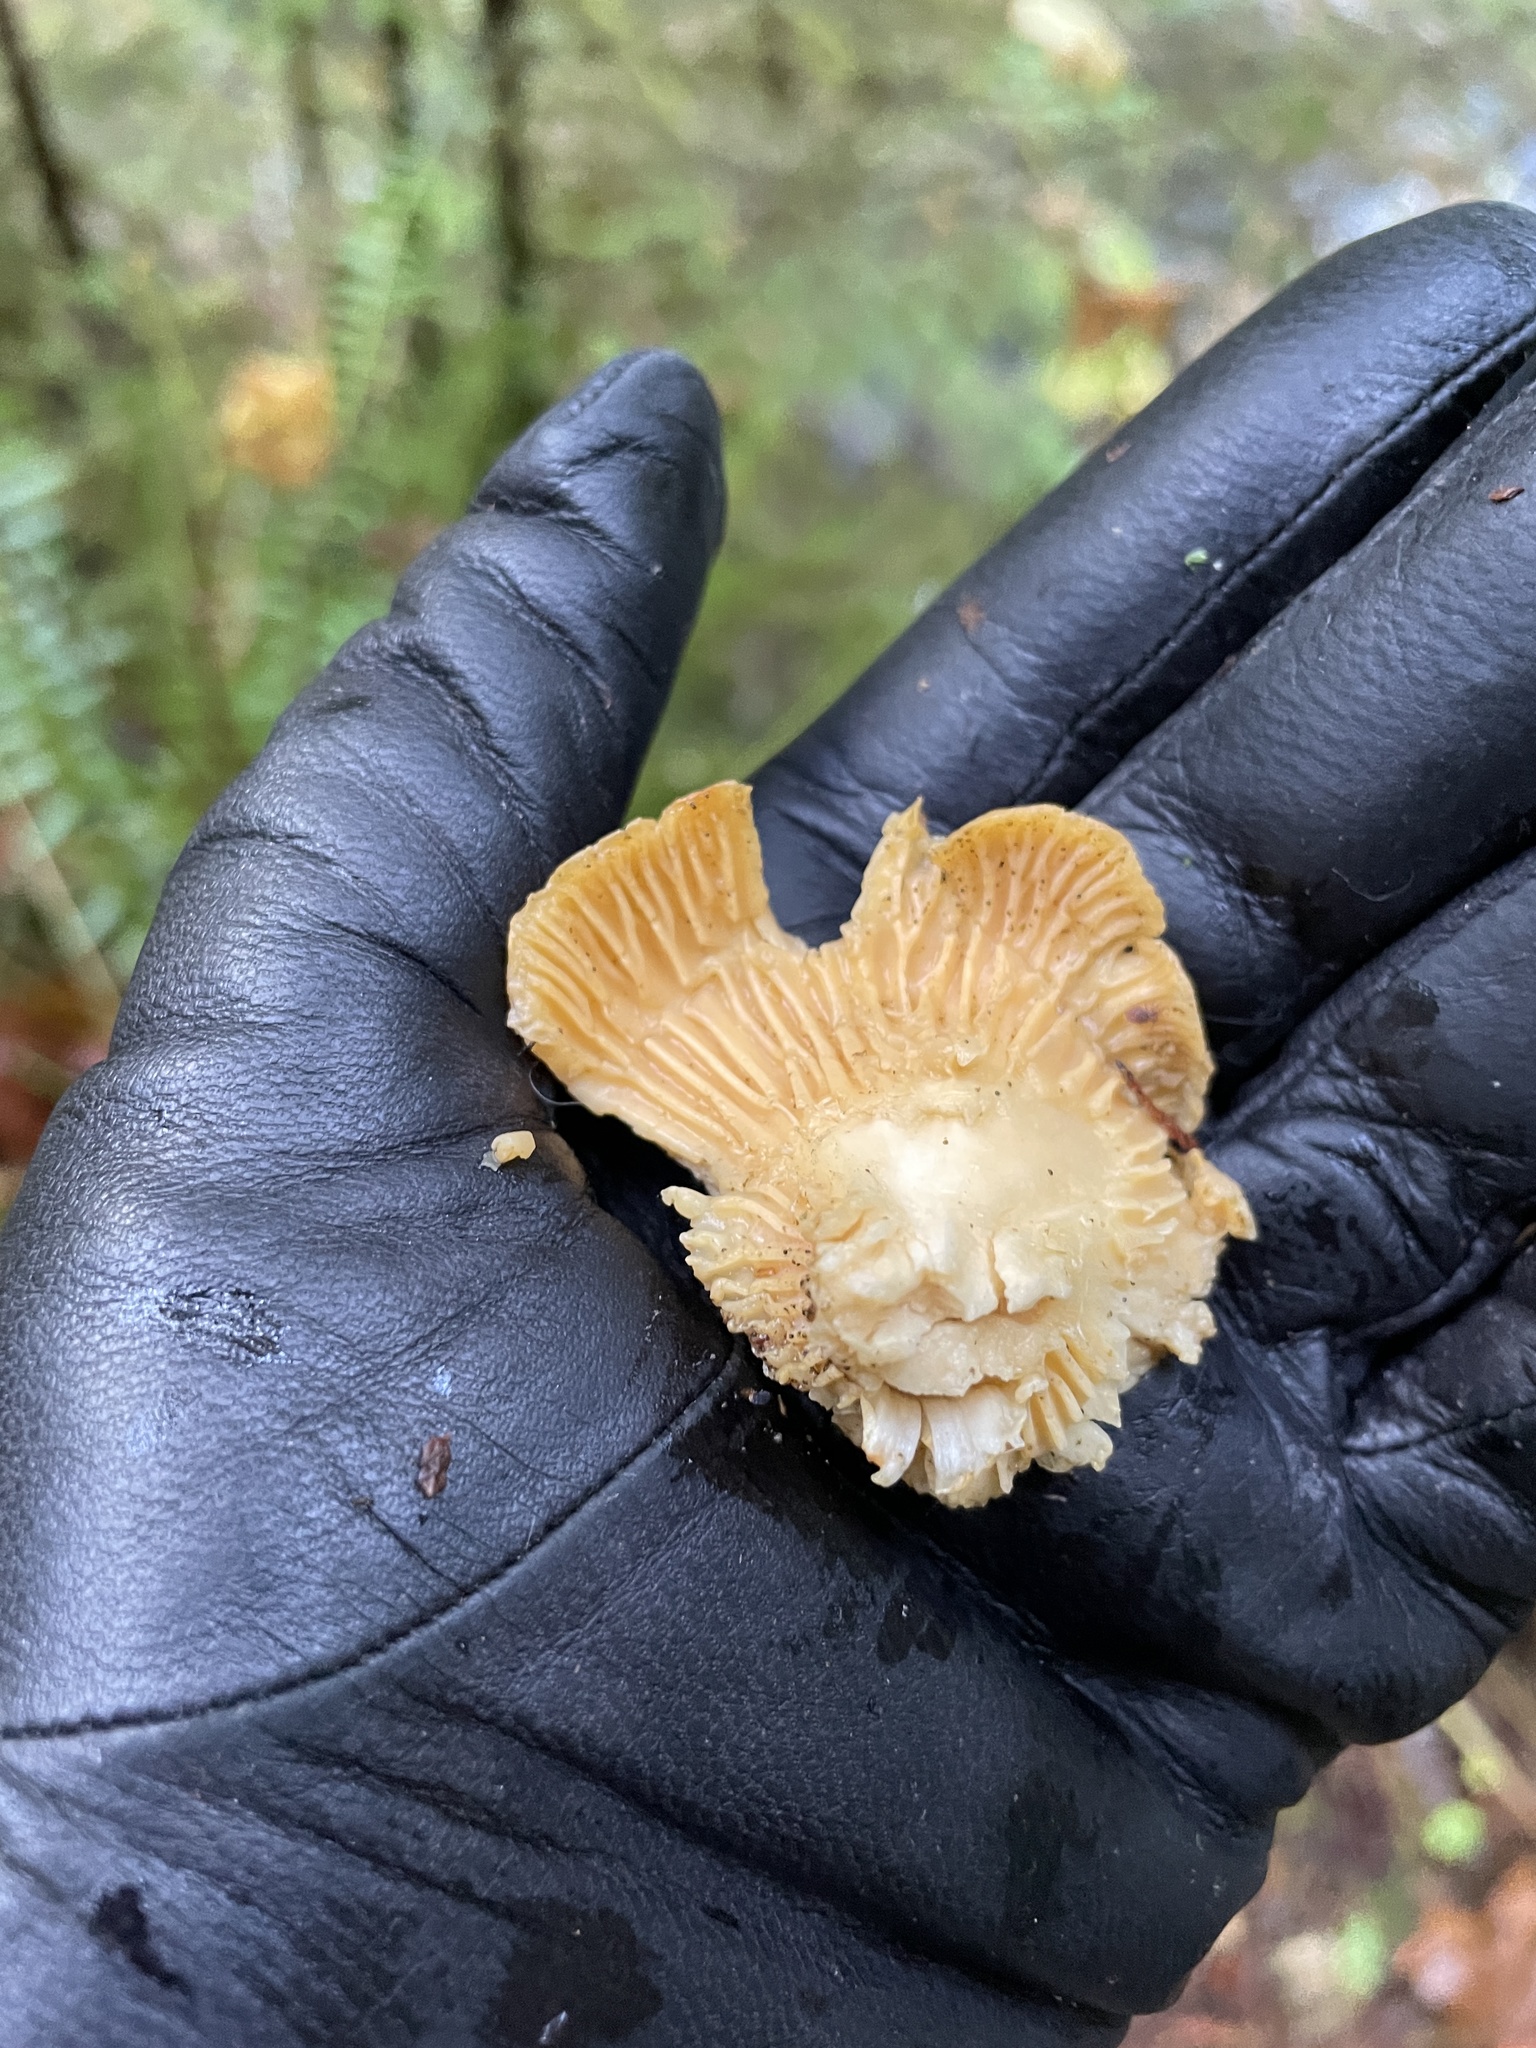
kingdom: Fungi
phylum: Basidiomycota
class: Agaricomycetes
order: Cantharellales
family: Hydnaceae
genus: Cantharellus
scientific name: Cantharellus formosus
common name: Pacific golden chanterelle
